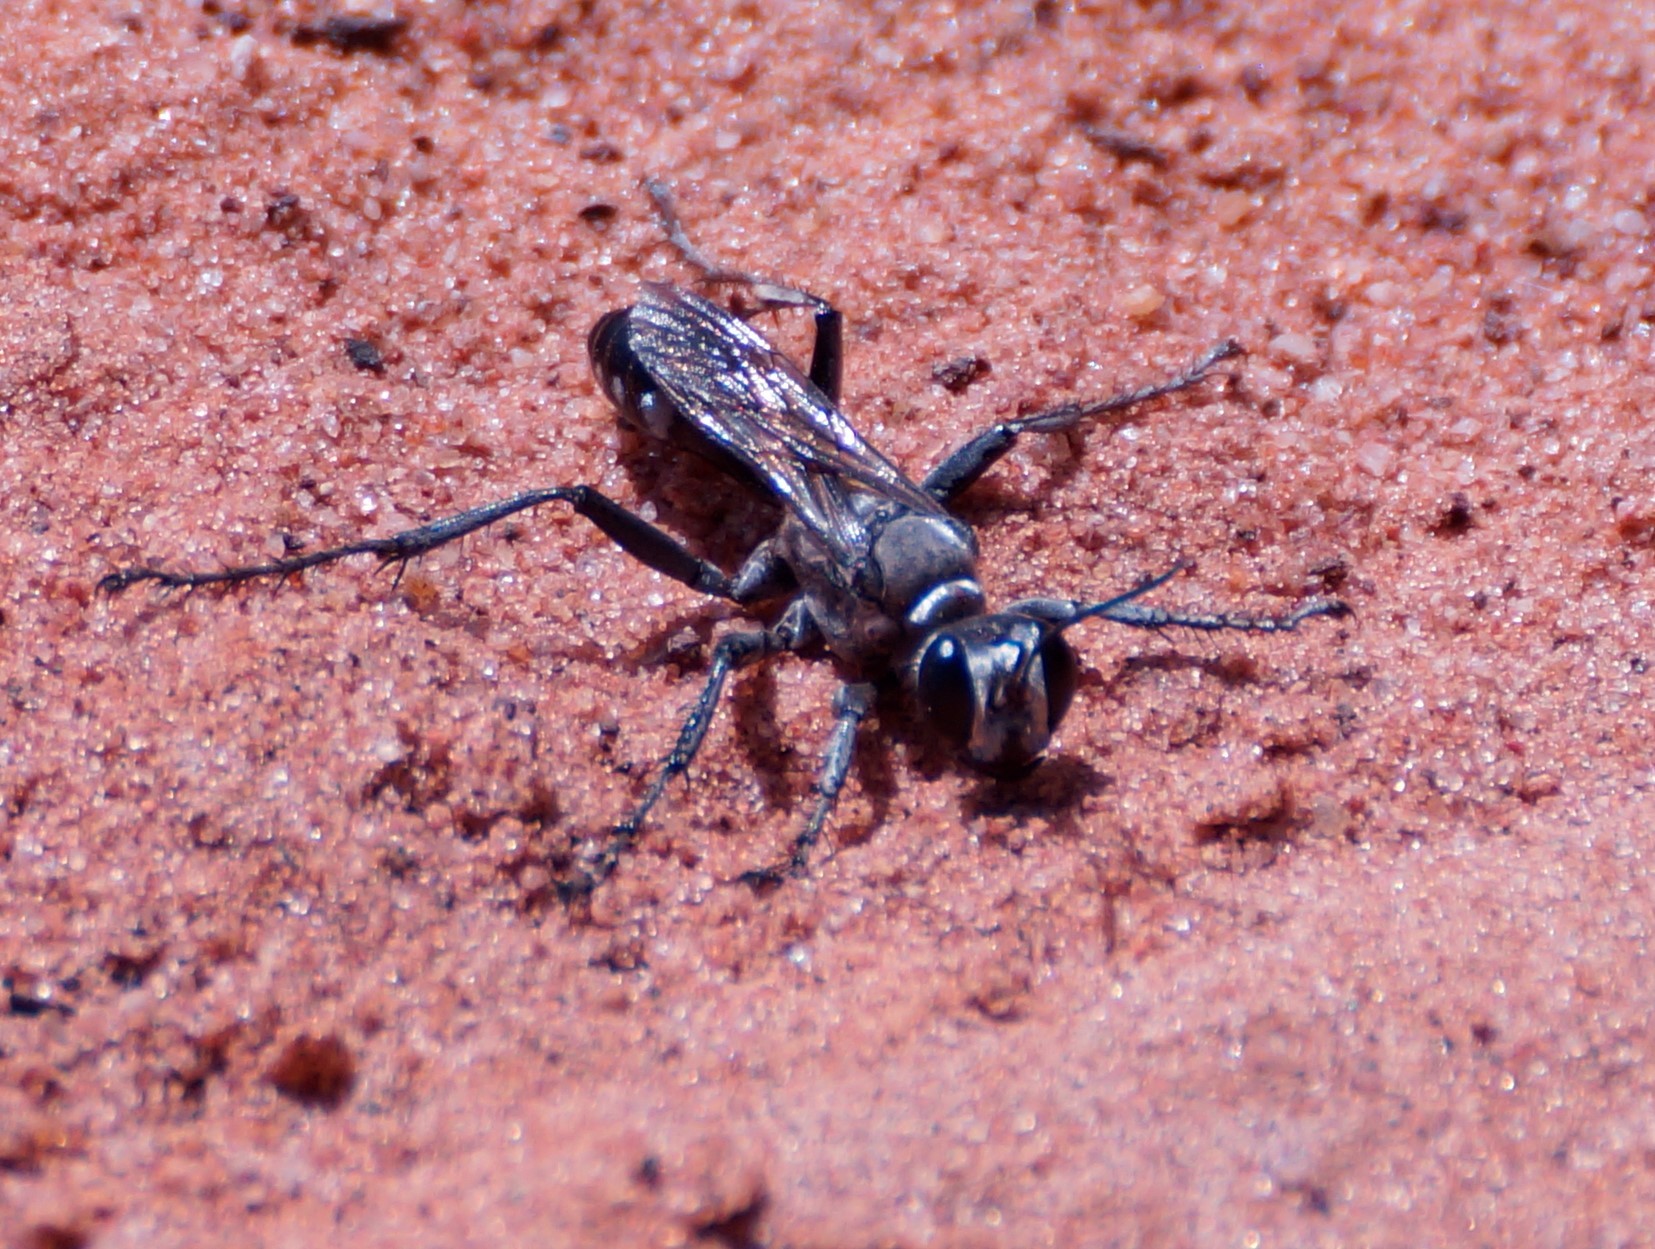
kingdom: Animalia
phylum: Arthropoda
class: Insecta
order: Hymenoptera
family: Sphecidae
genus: Prionyx
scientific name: Prionyx globosus
